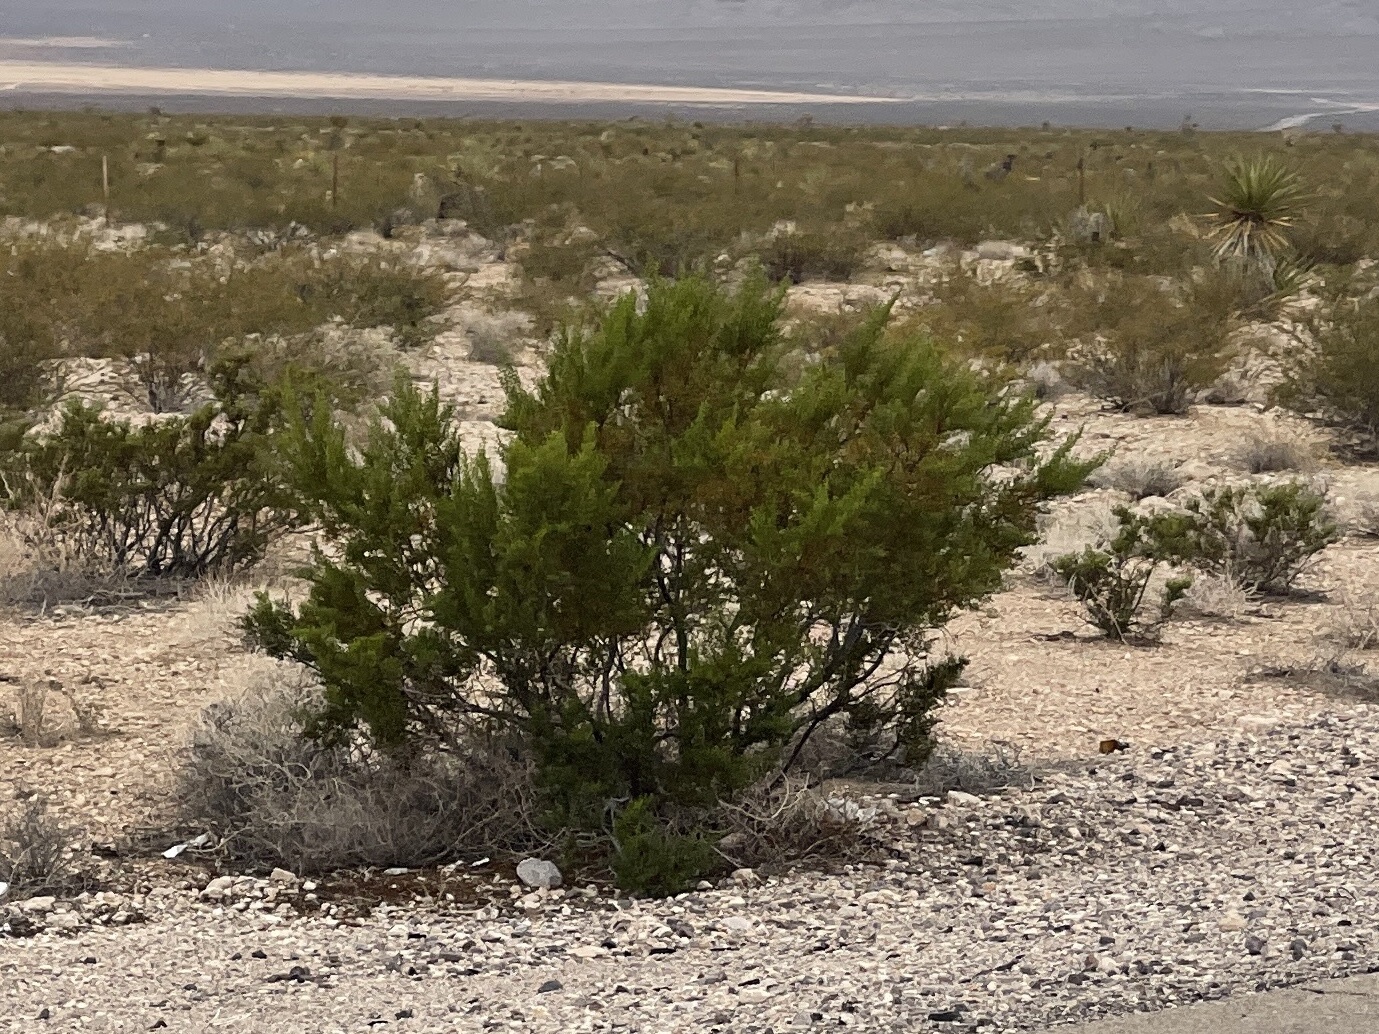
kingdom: Plantae
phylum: Tracheophyta
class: Magnoliopsida
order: Zygophyllales
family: Zygophyllaceae
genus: Larrea
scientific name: Larrea tridentata
